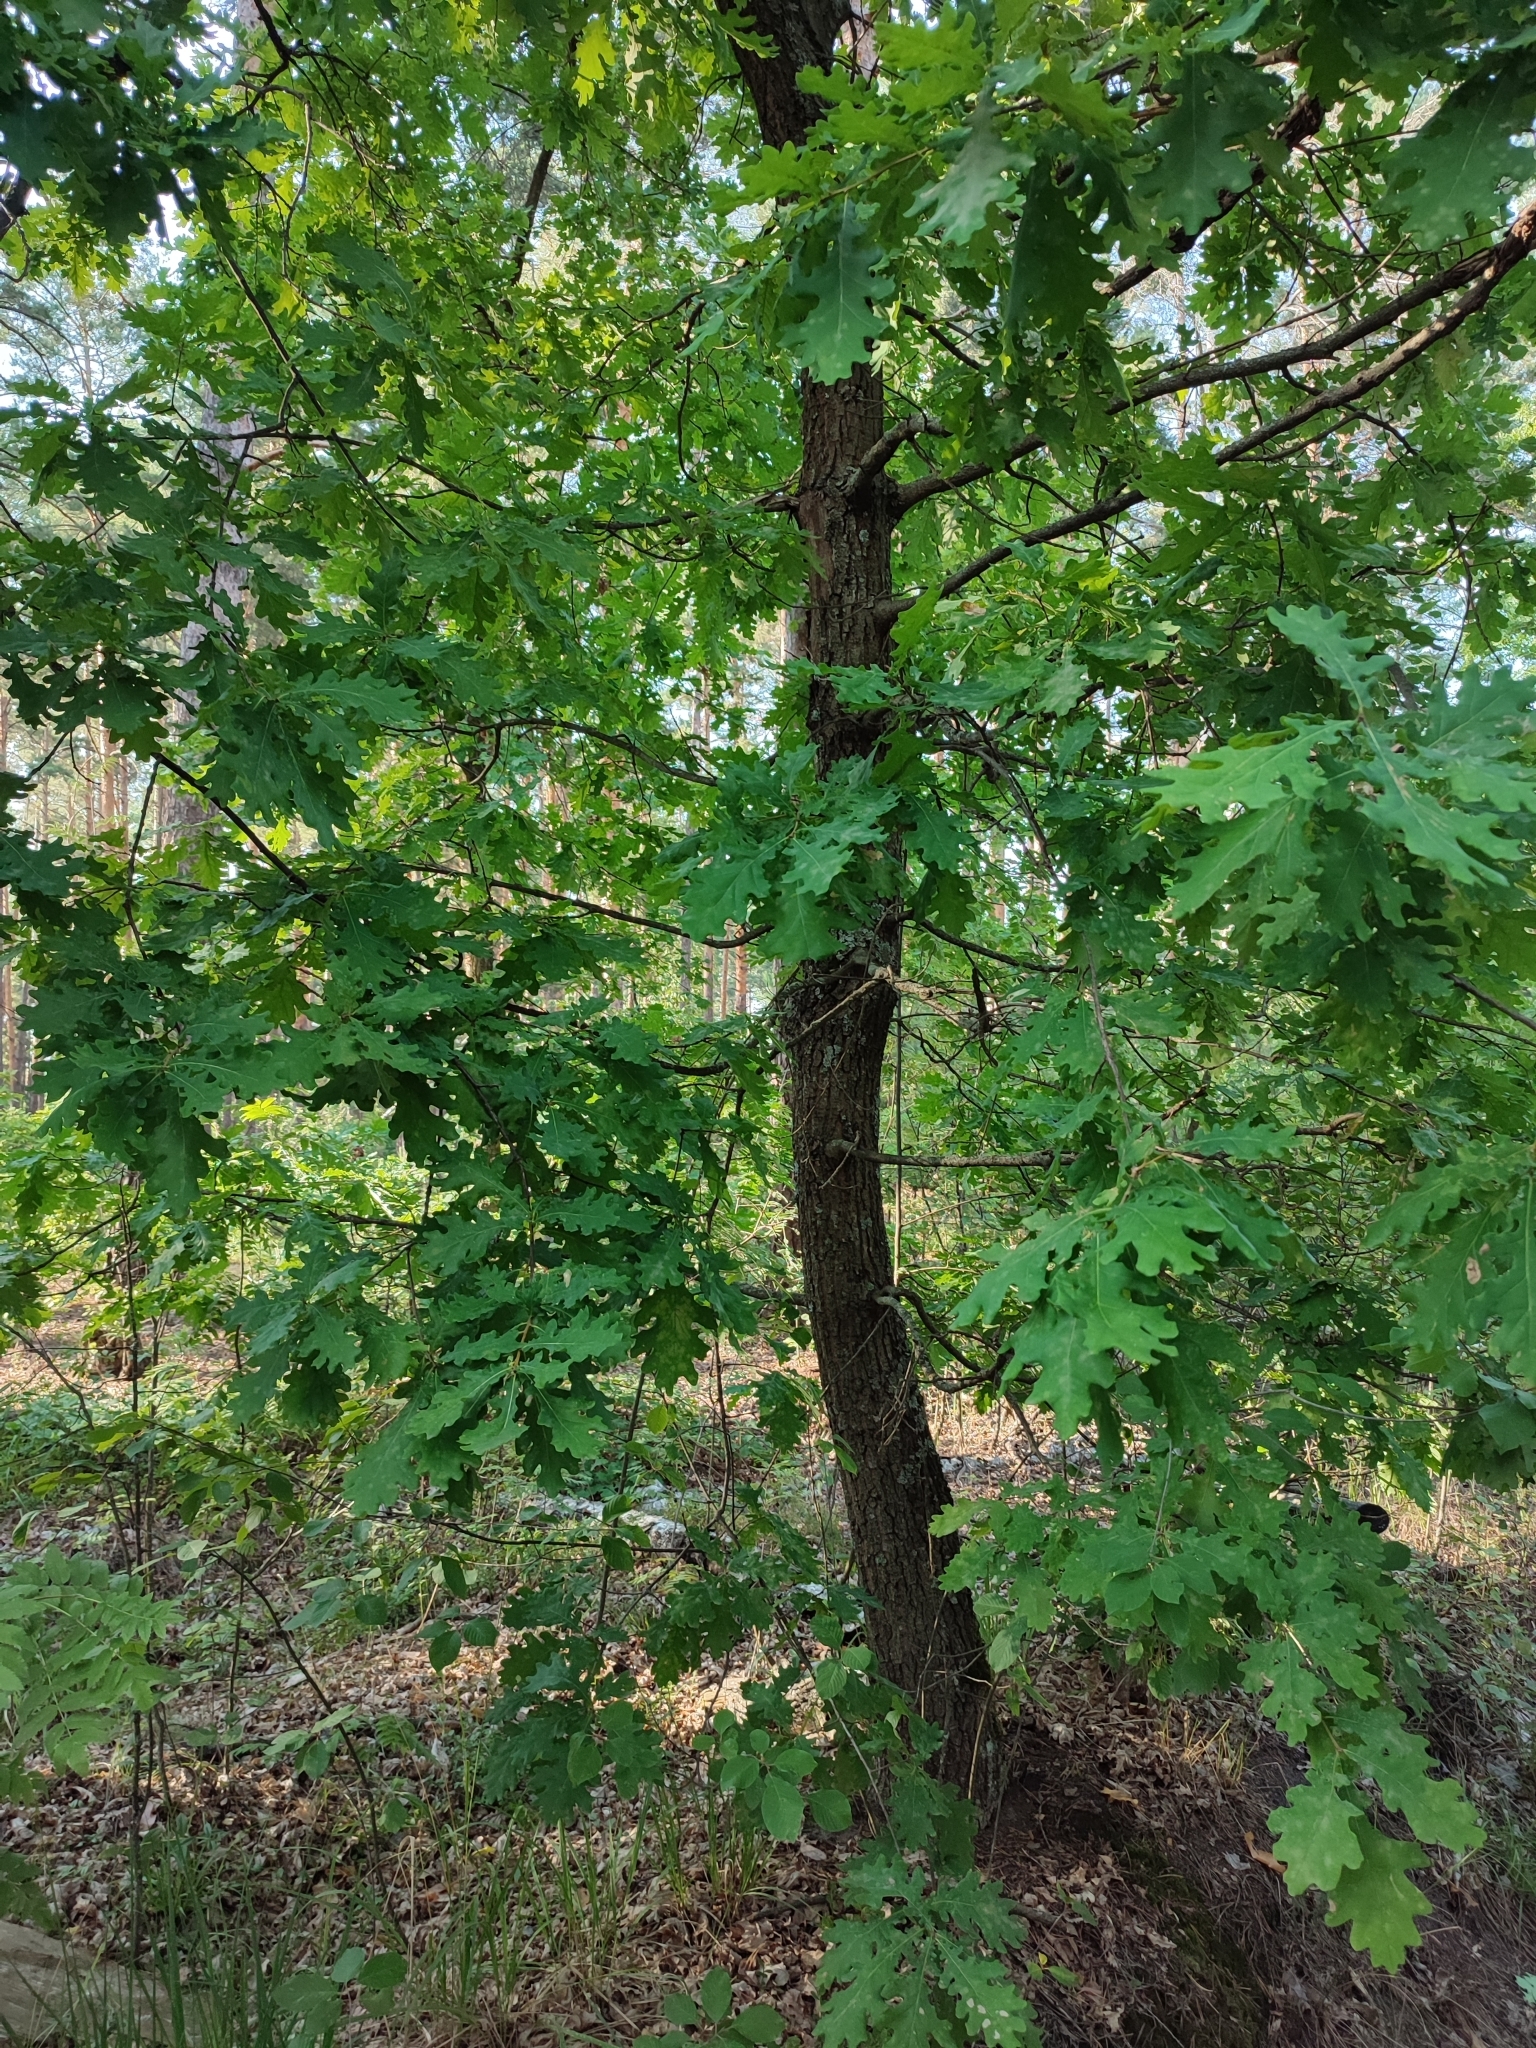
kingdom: Plantae
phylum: Tracheophyta
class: Magnoliopsida
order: Fagales
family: Fagaceae
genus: Quercus
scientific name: Quercus robur
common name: Pedunculate oak
